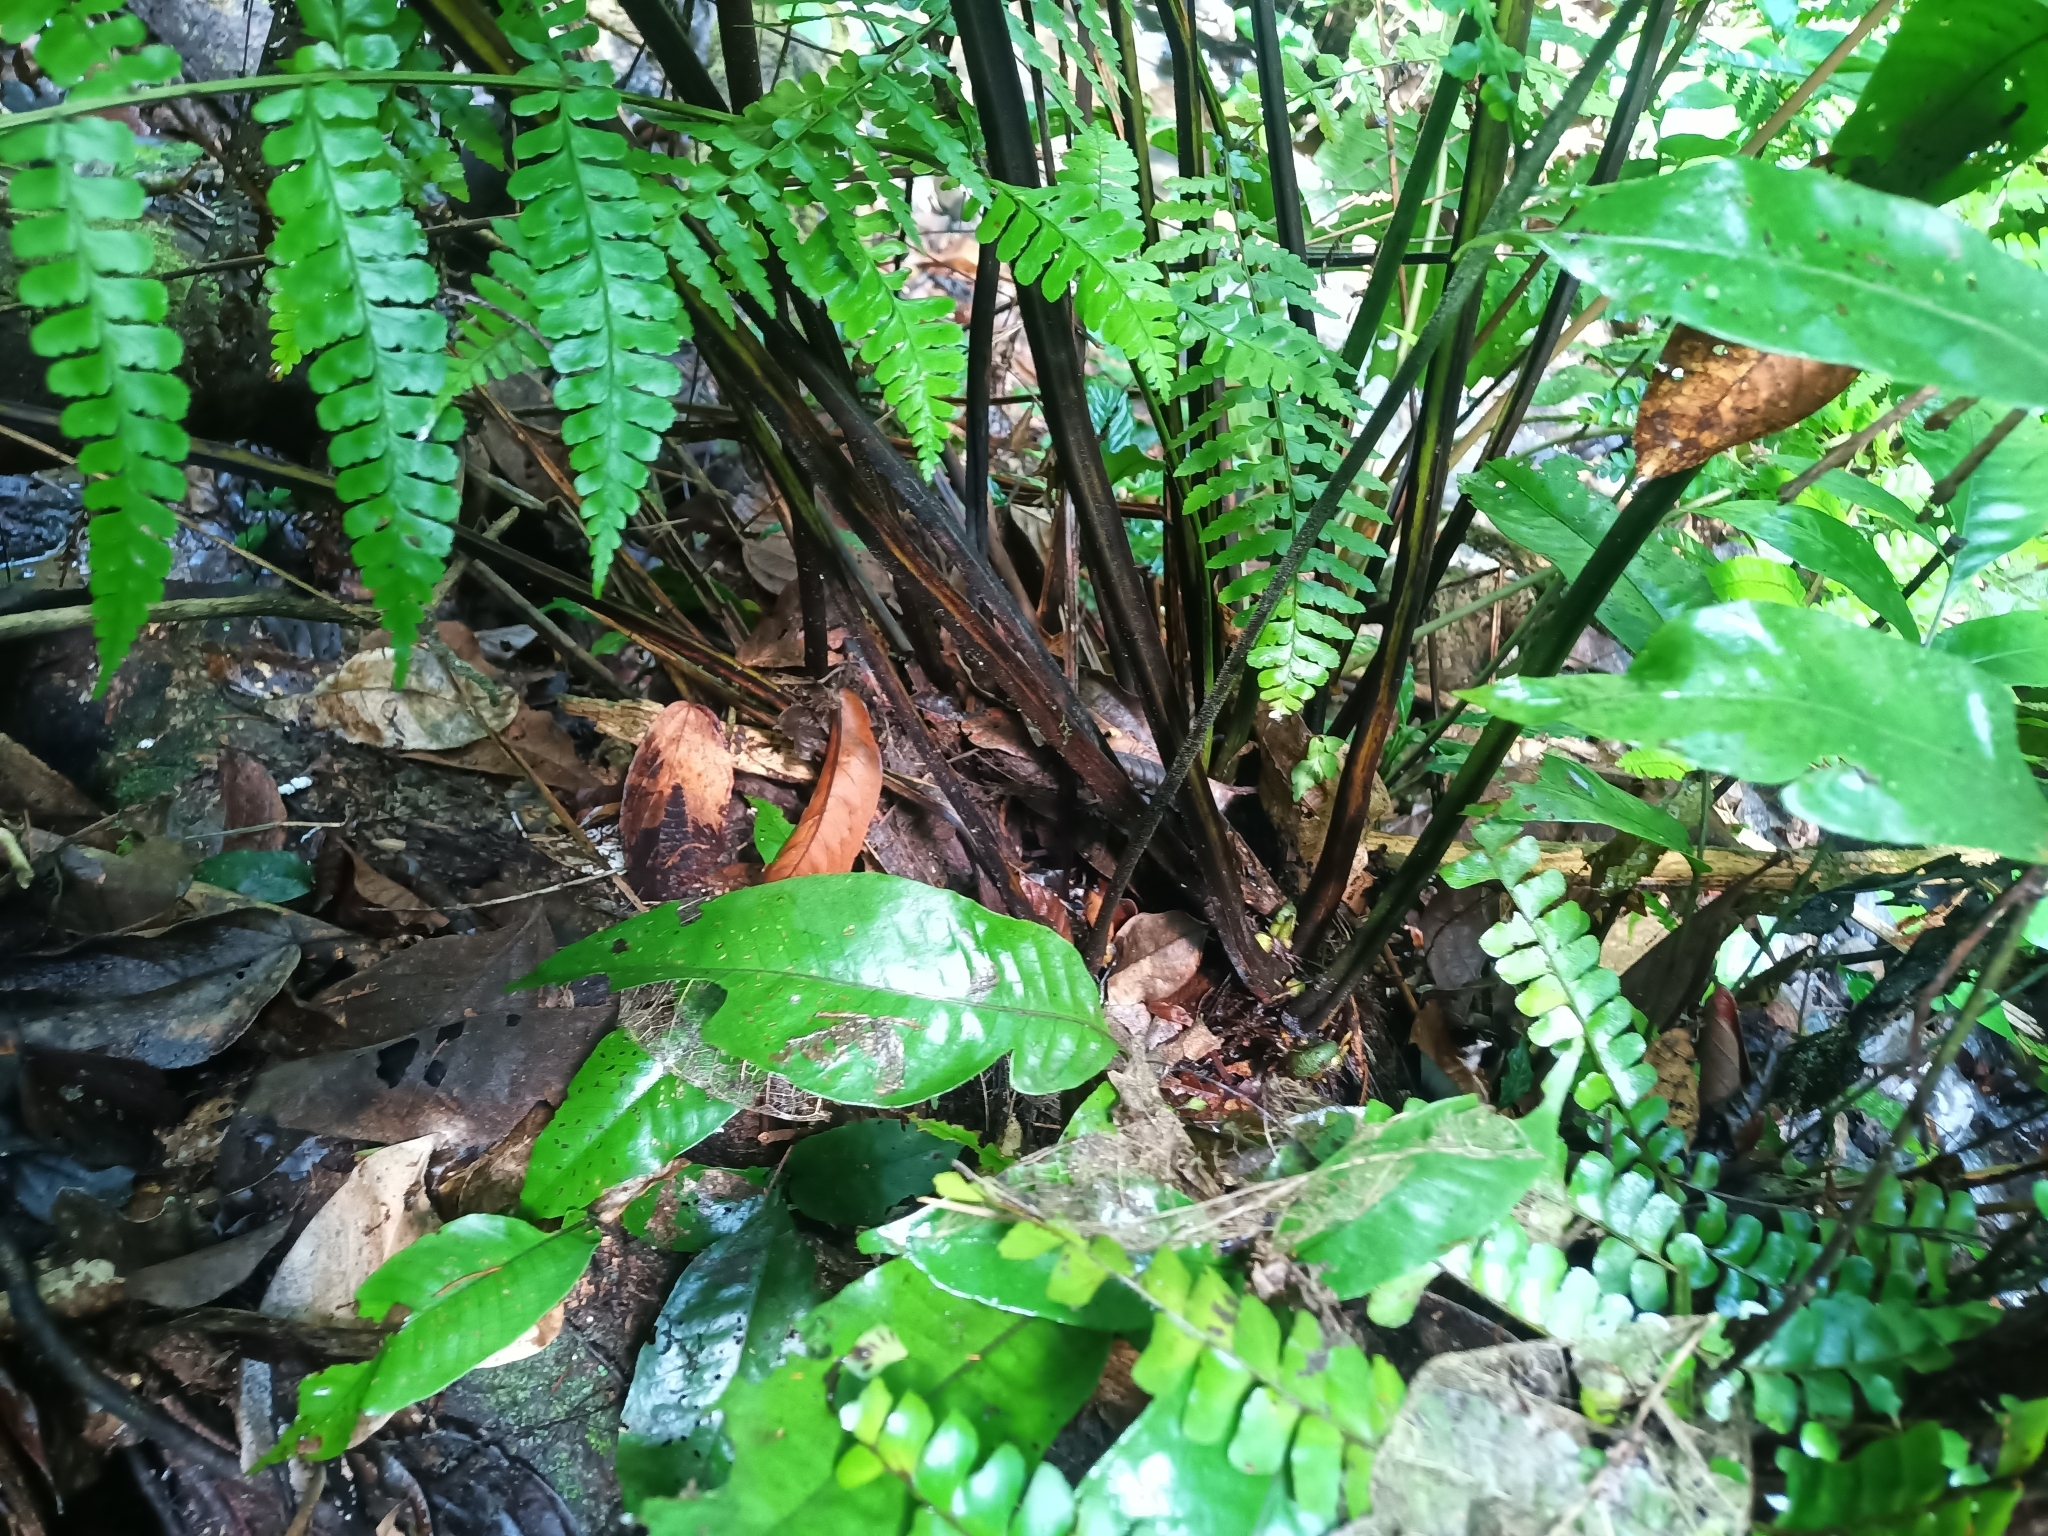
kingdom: Plantae
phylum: Tracheophyta
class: Polypodiopsida
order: Polypodiales
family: Dennstaedtiaceae
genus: Dennstaedtia
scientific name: Dennstaedtia obtusifolia
